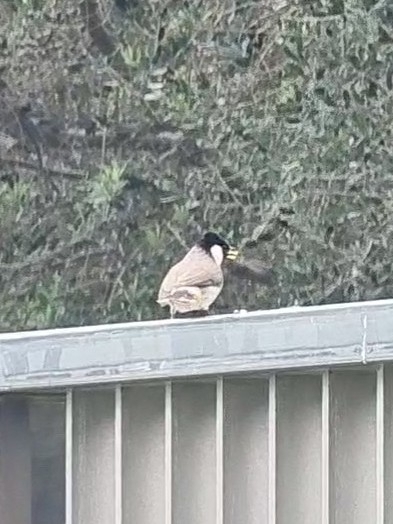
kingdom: Animalia
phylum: Chordata
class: Aves
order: Passeriformes
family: Pycnonotidae
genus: Pycnonotus
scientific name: Pycnonotus leucotis
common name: White-eared bulbul
